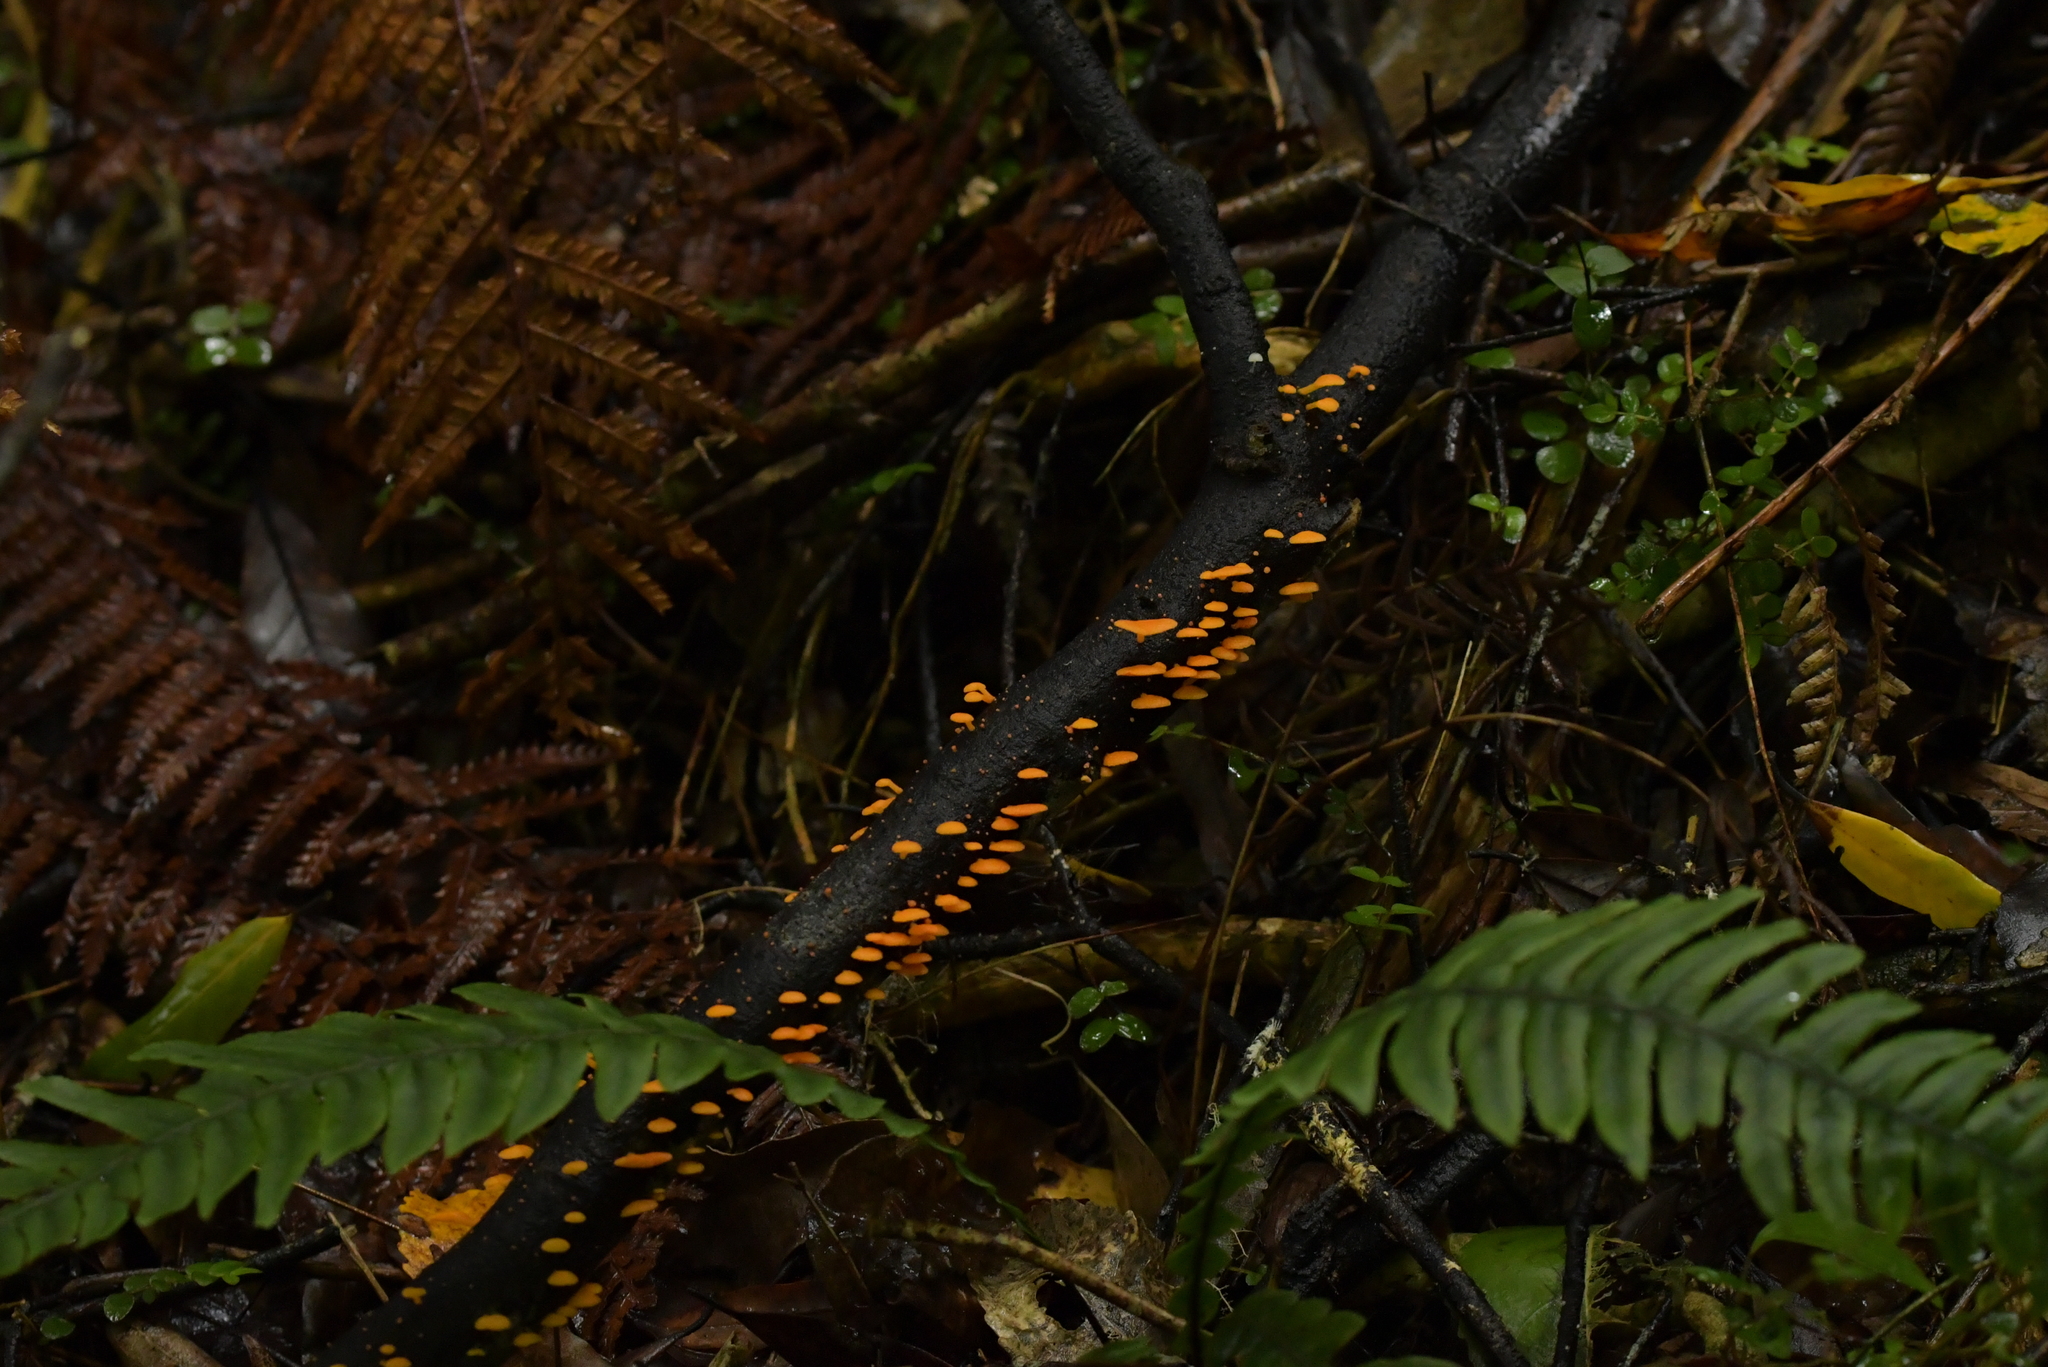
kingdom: Fungi
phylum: Basidiomycota
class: Agaricomycetes
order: Agaricales
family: Mycenaceae
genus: Favolaschia
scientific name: Favolaschia claudopus
